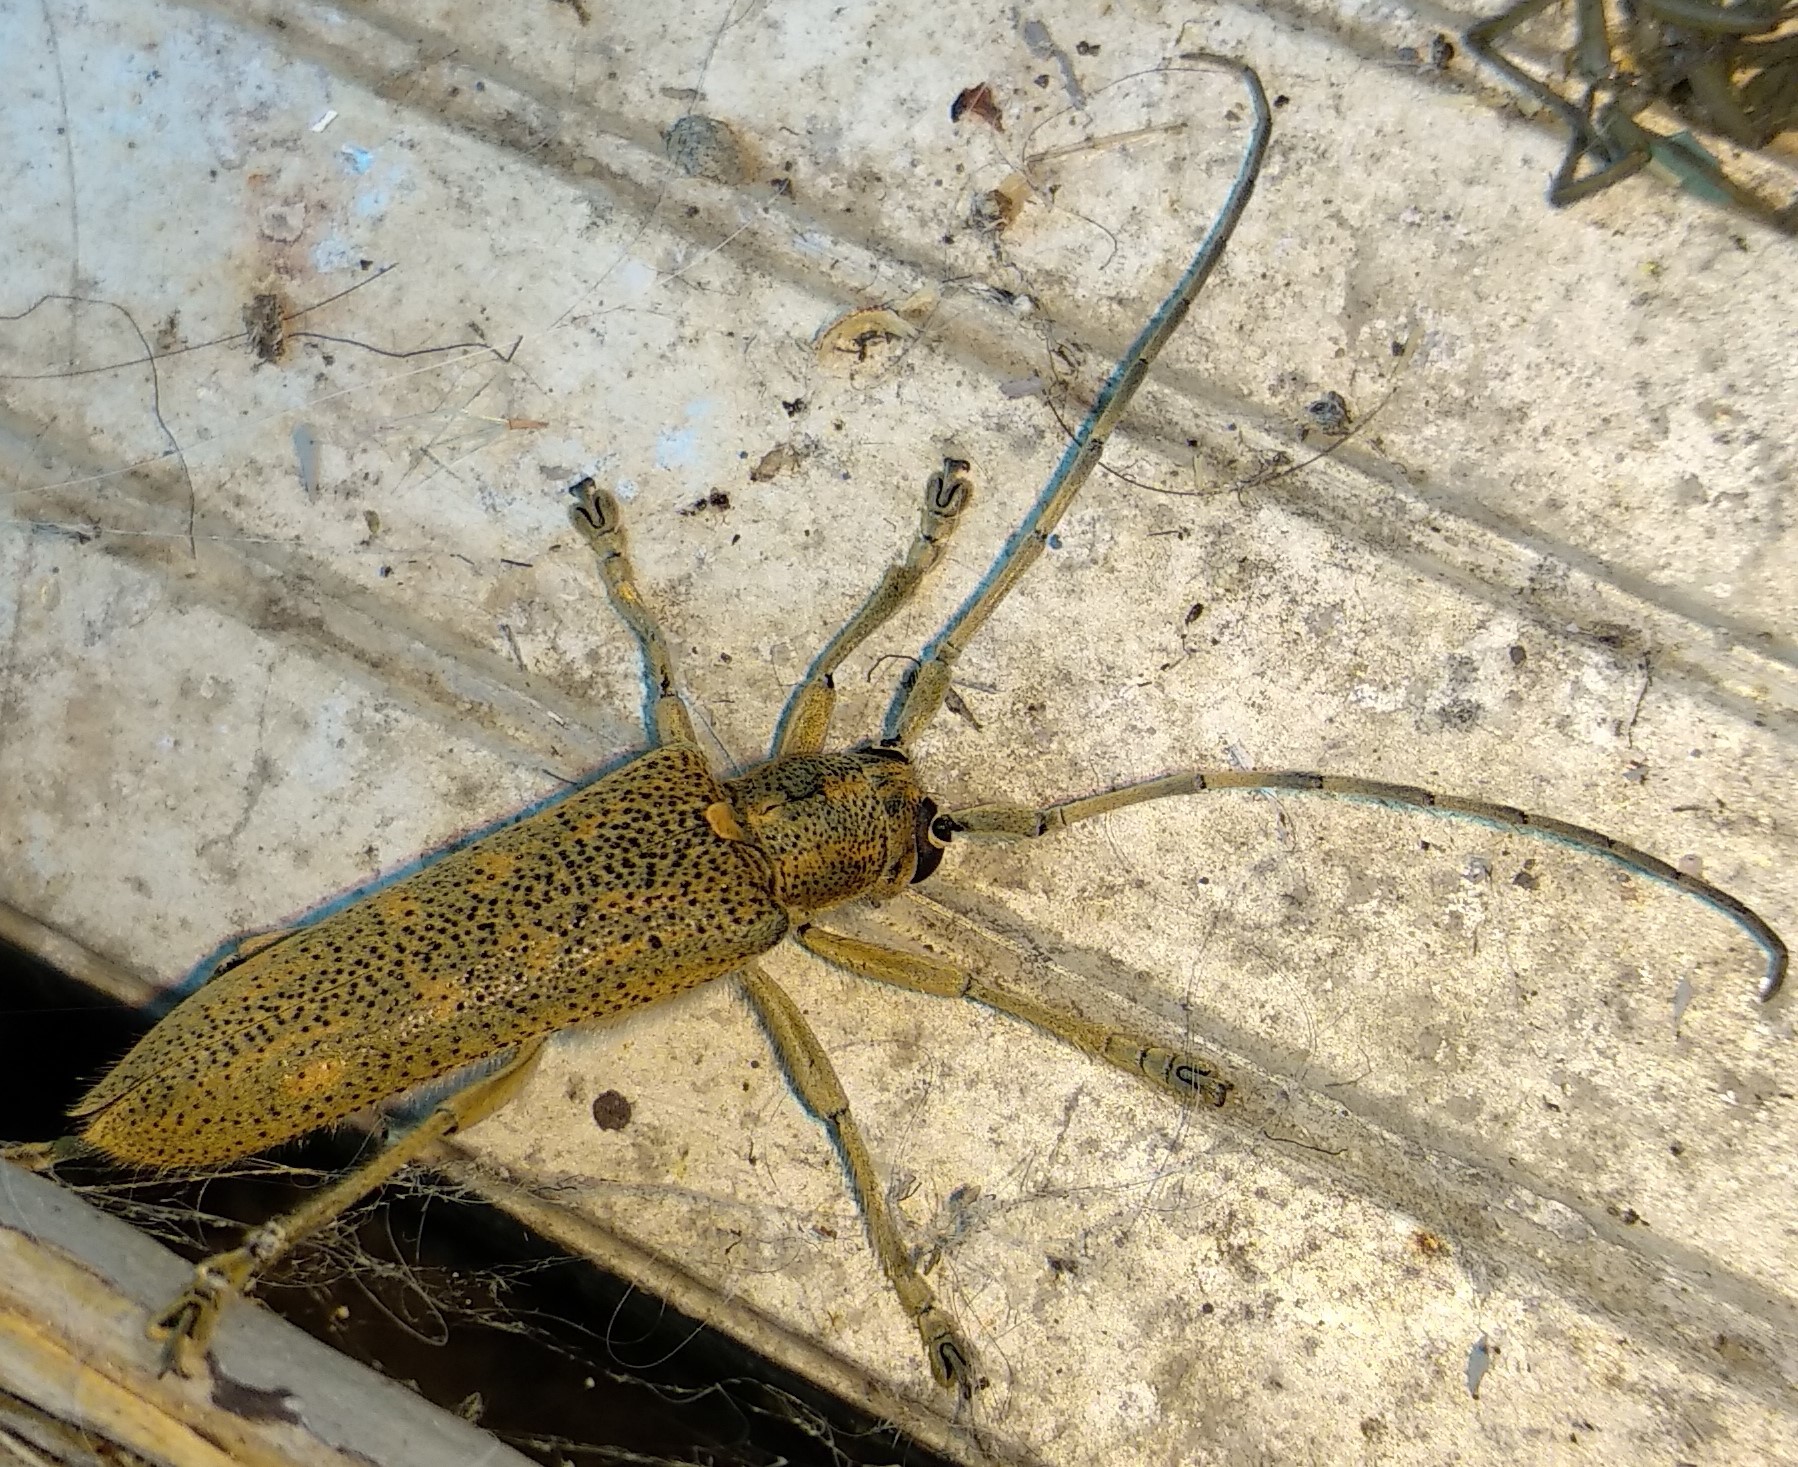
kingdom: Animalia
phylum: Arthropoda
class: Insecta
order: Coleoptera
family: Cerambycidae
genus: Saperda
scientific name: Saperda calcarata
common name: Poplar borer
